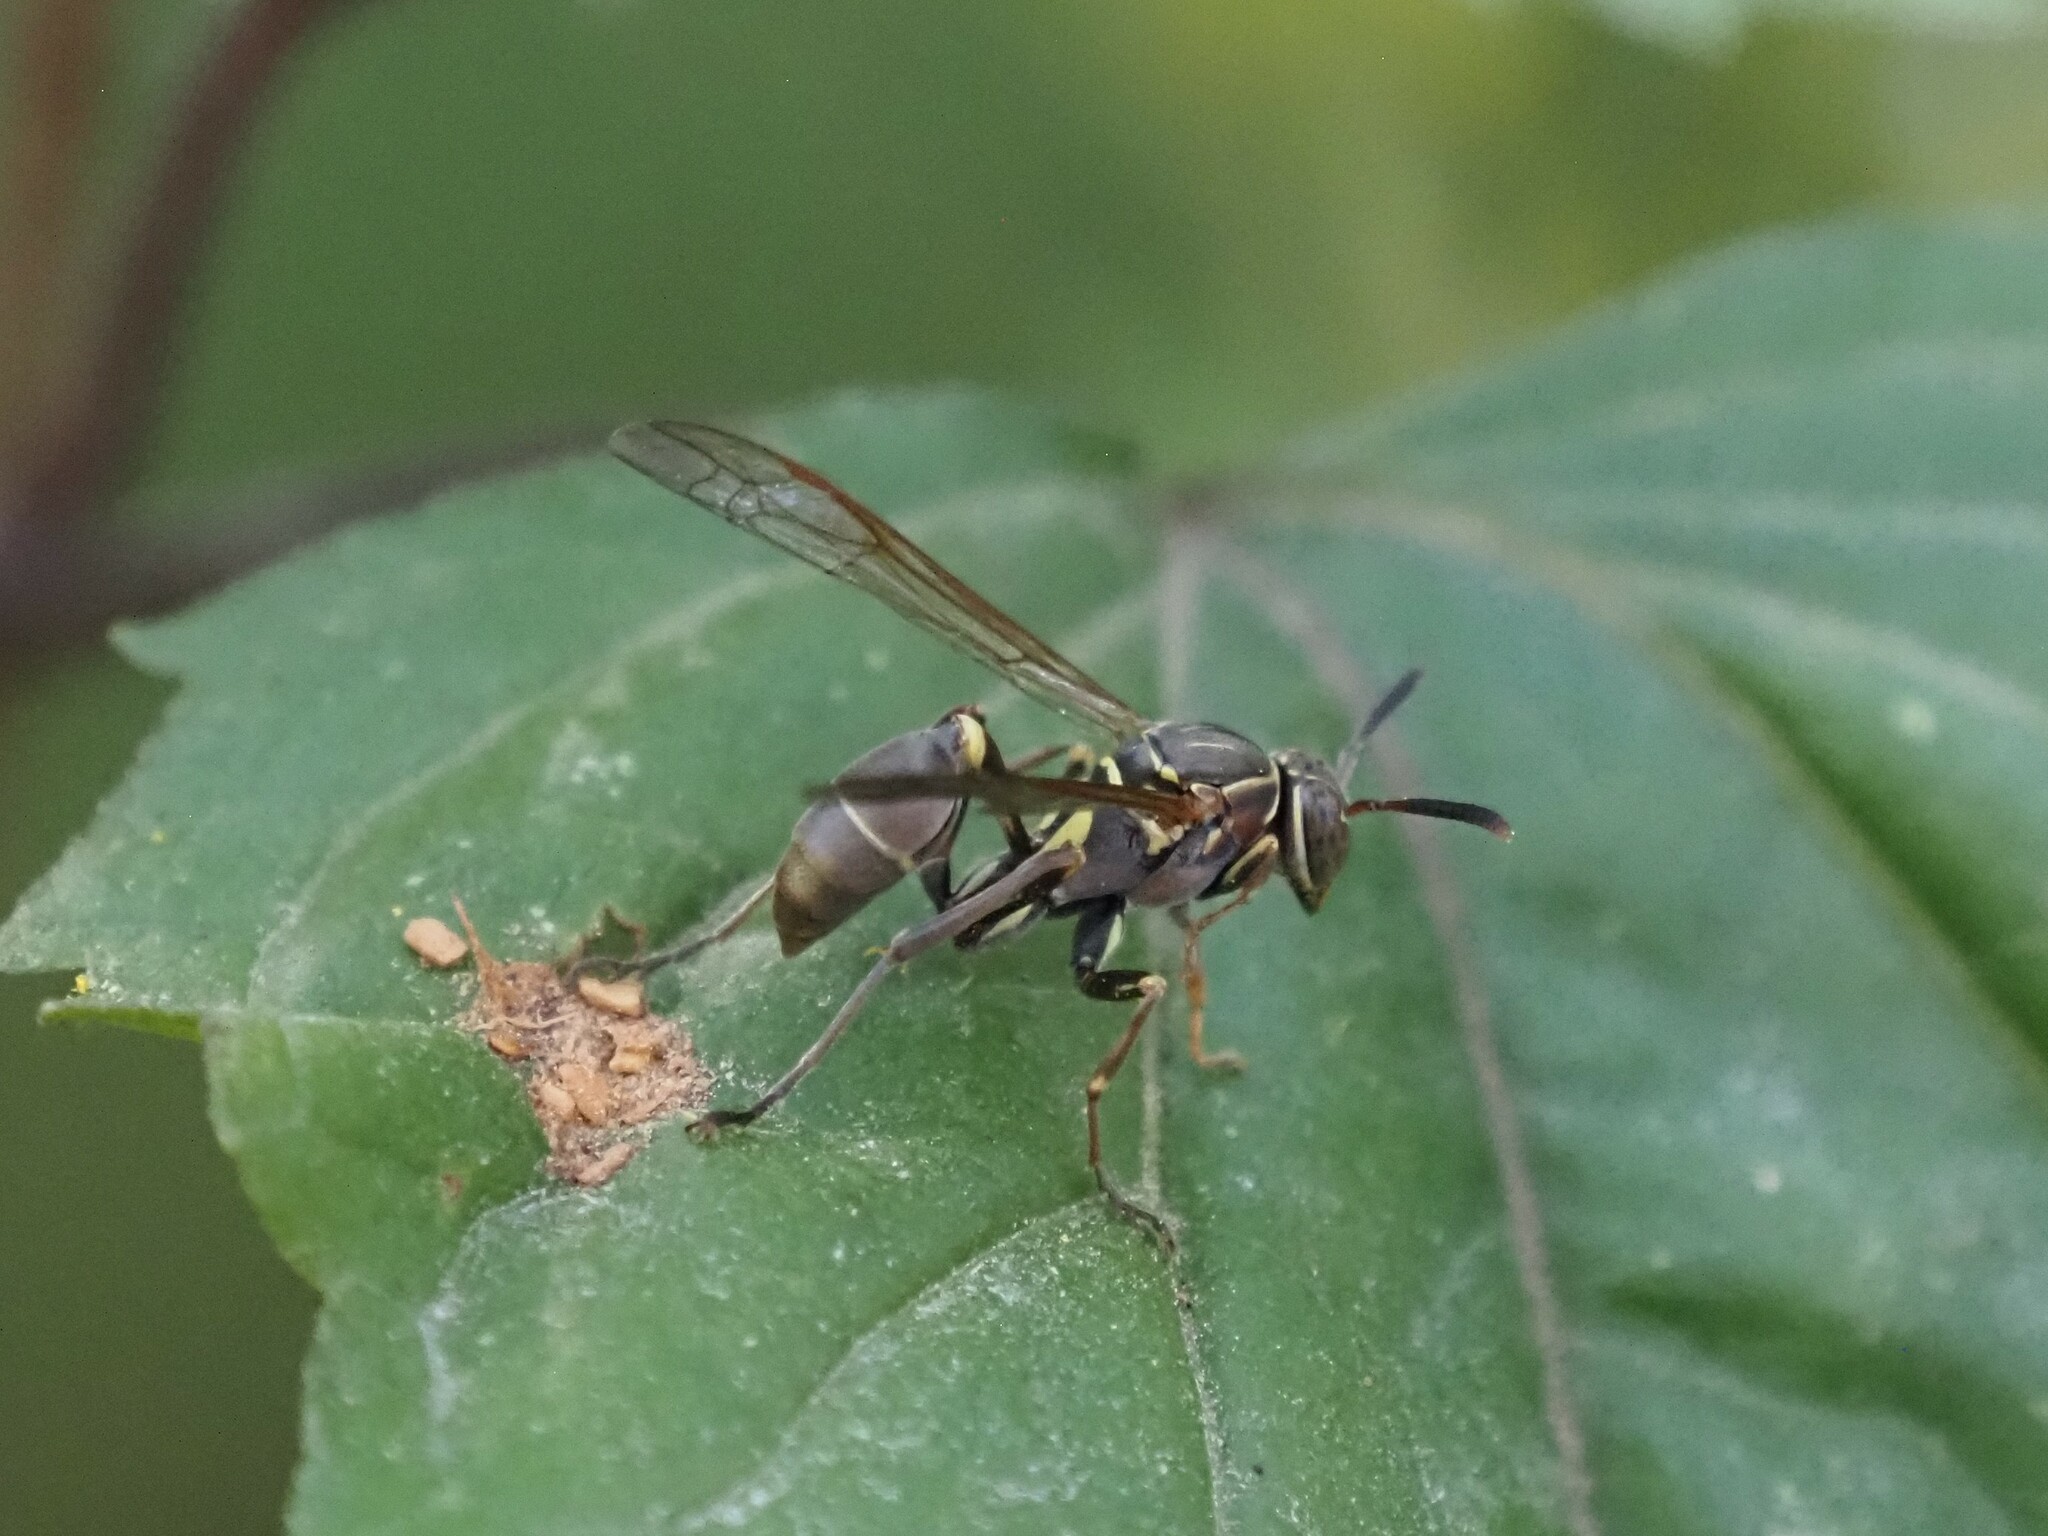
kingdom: Animalia
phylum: Arthropoda
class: Insecta
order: Hymenoptera
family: Vespidae
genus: Mischocyttarus
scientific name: Mischocyttarus mexicanus
